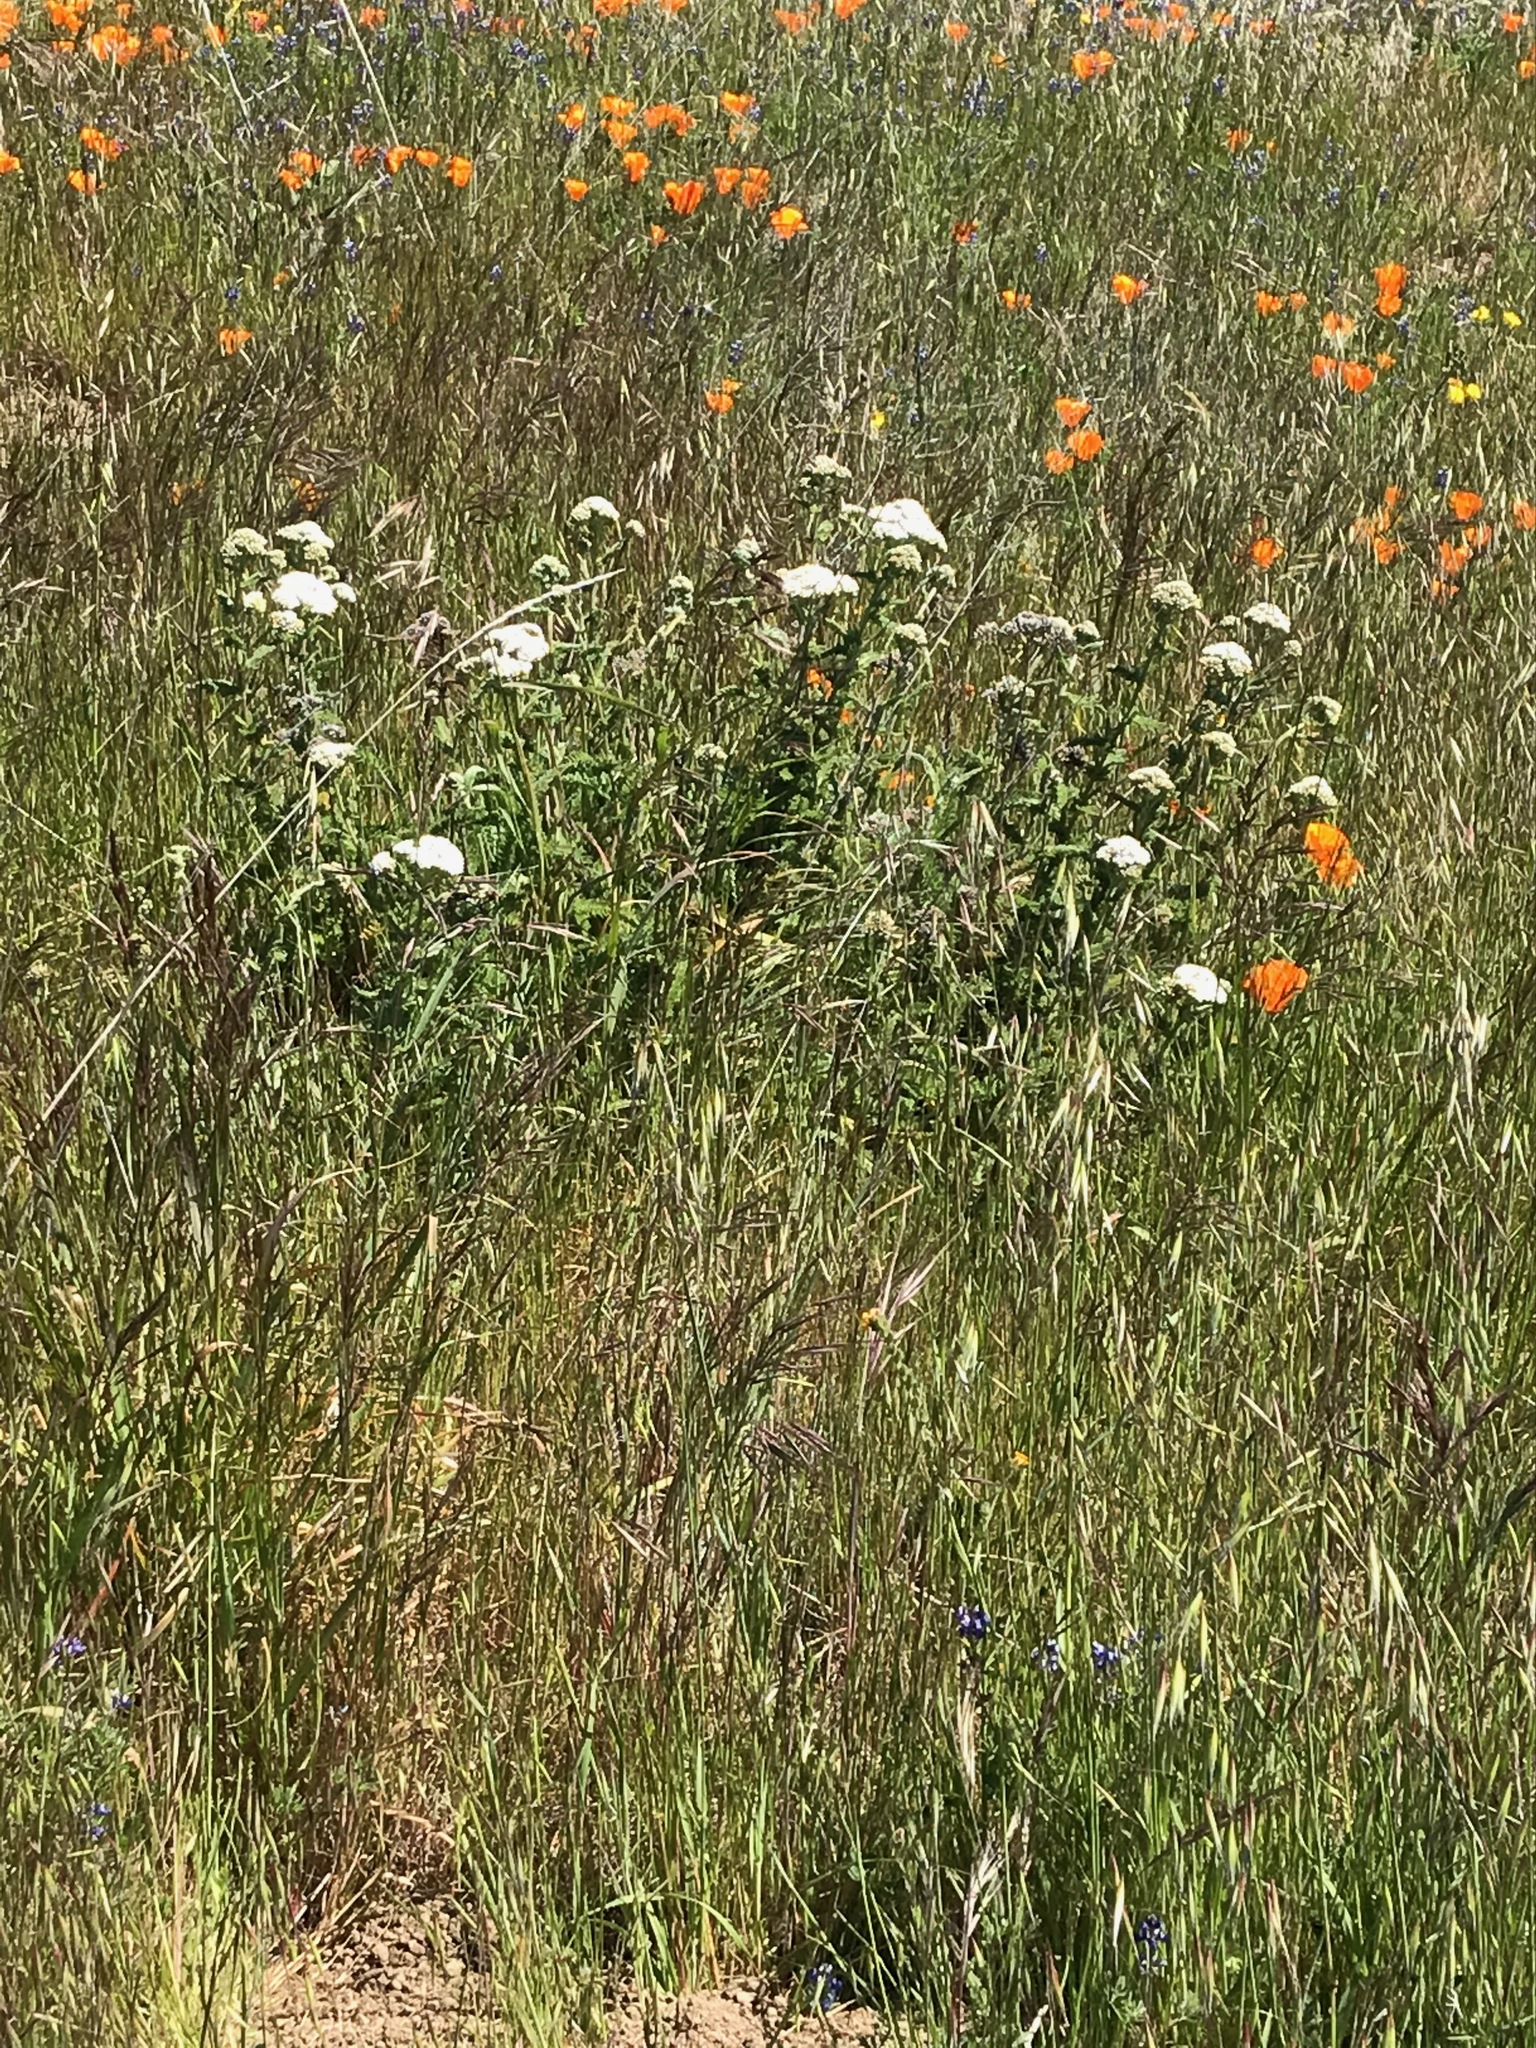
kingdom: Plantae
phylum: Tracheophyta
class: Magnoliopsida
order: Asterales
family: Asteraceae
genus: Achillea
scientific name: Achillea millefolium
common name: Yarrow
